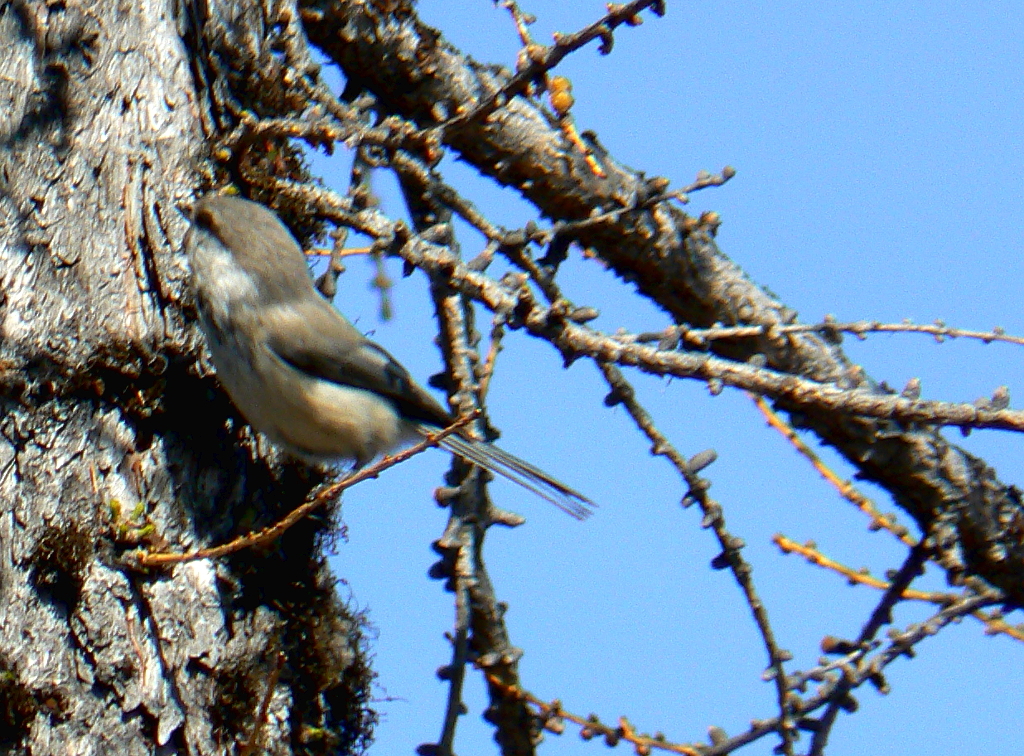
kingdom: Animalia
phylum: Chordata
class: Aves
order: Passeriformes
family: Paridae
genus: Poecile
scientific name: Poecile cinctus
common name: Gray-headed chickadee
